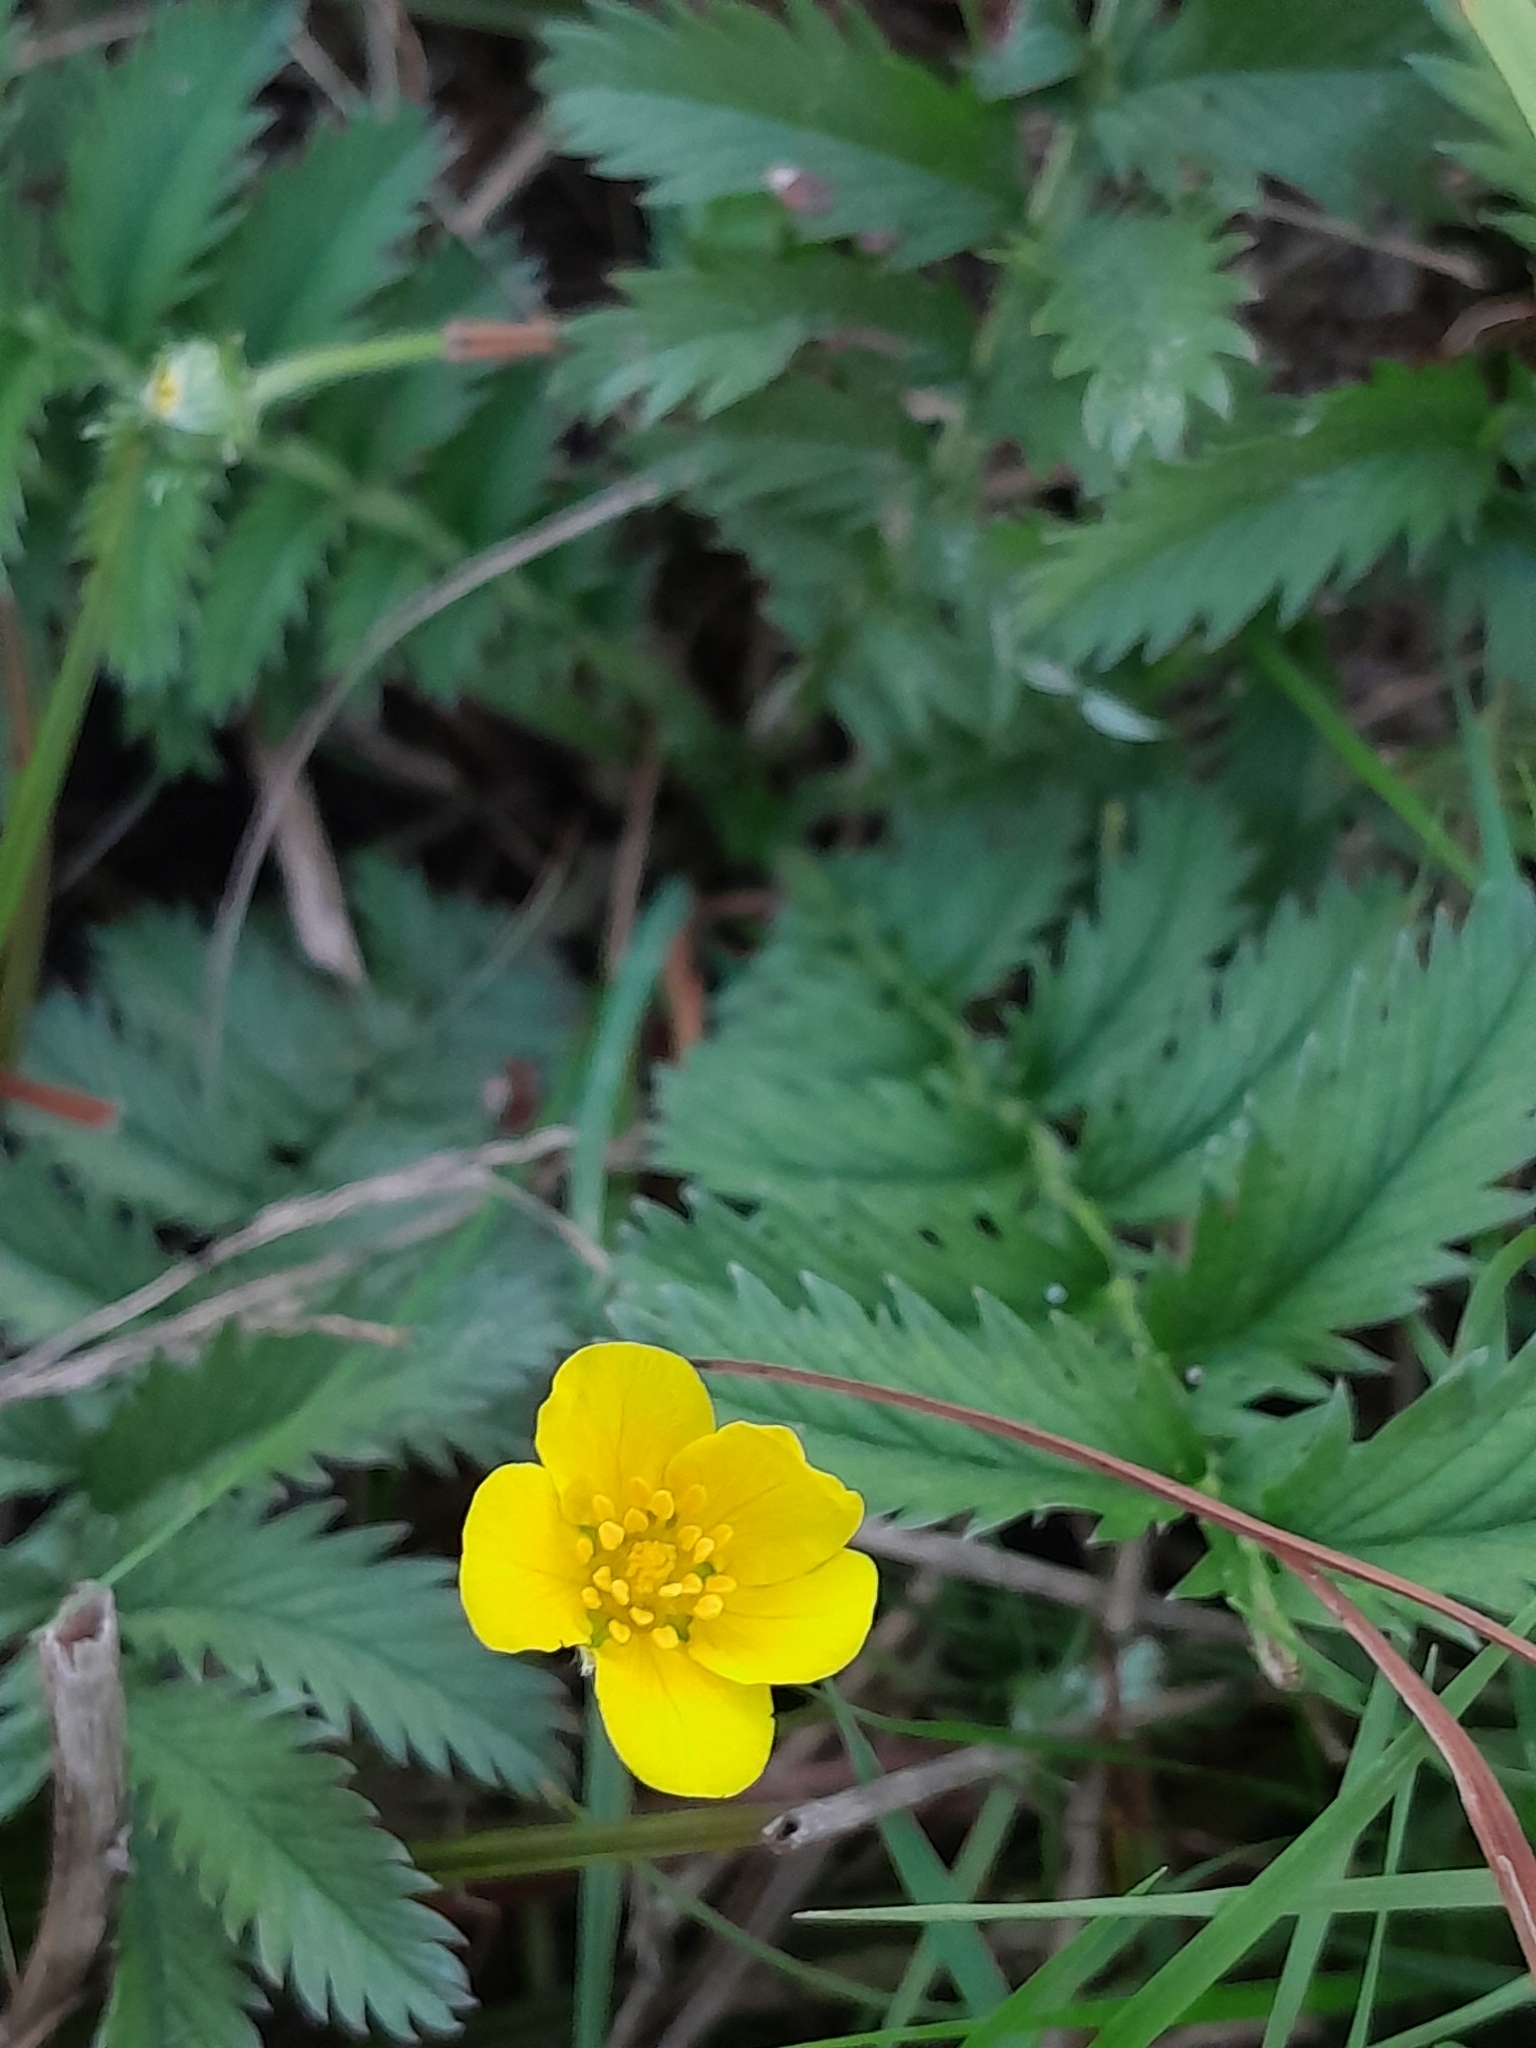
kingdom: Plantae
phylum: Tracheophyta
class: Magnoliopsida
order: Rosales
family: Rosaceae
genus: Argentina
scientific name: Argentina anserina
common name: Common silverweed
